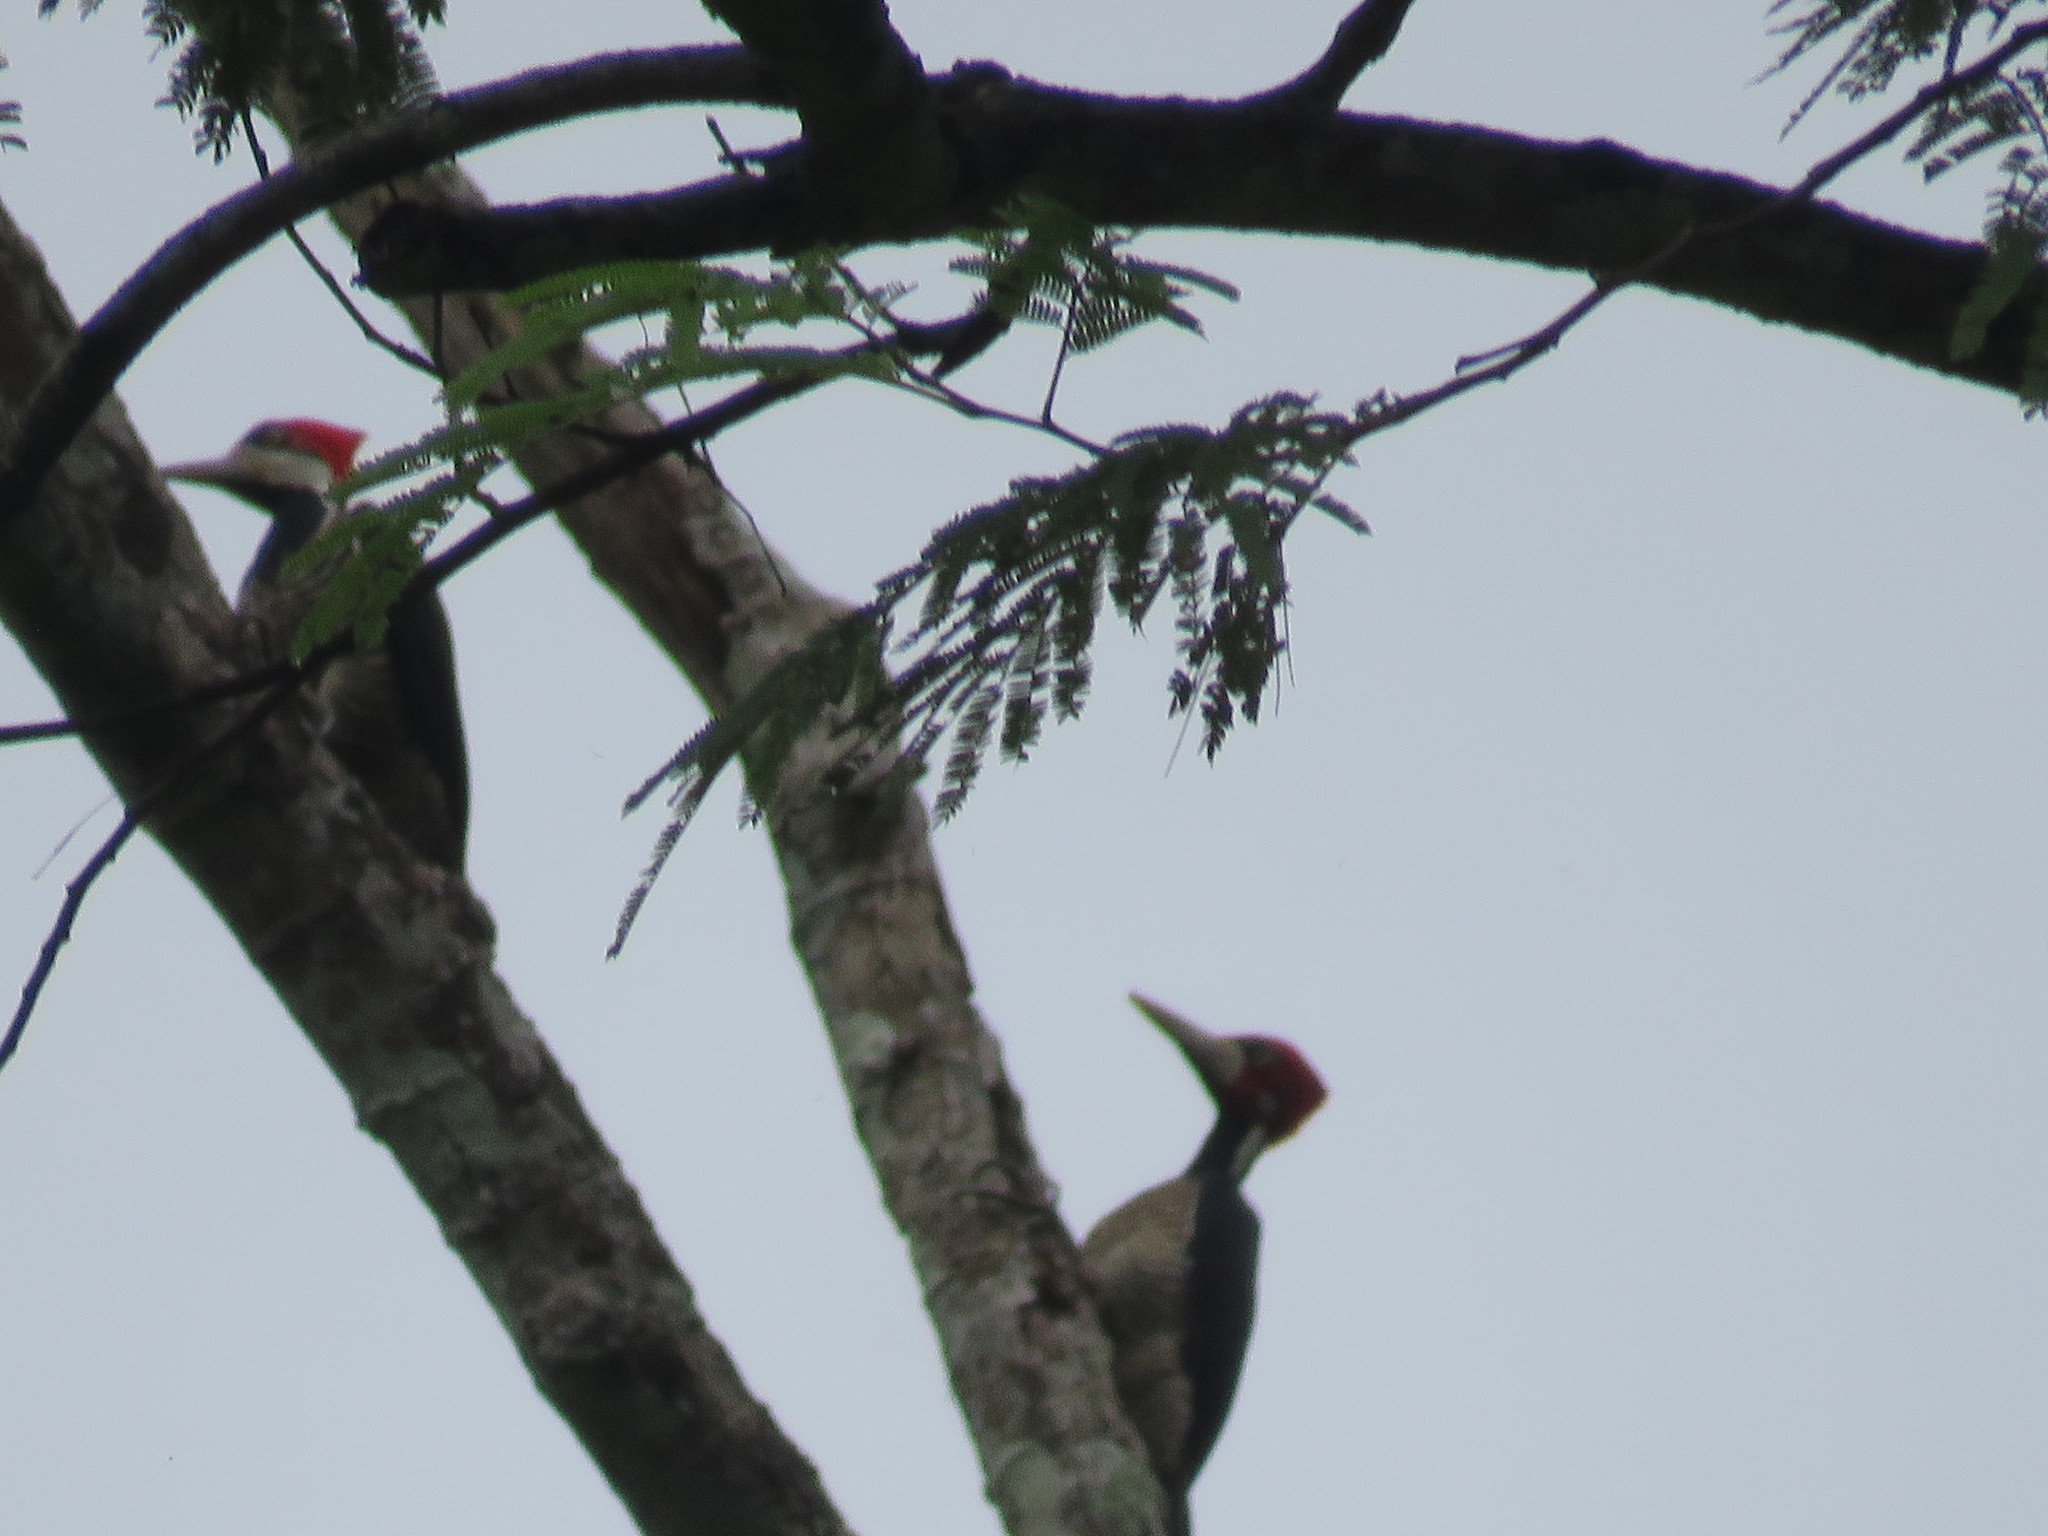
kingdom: Animalia
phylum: Chordata
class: Aves
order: Piciformes
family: Picidae
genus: Campephilus
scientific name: Campephilus melanoleucos
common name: Crimson-crested woodpecker
